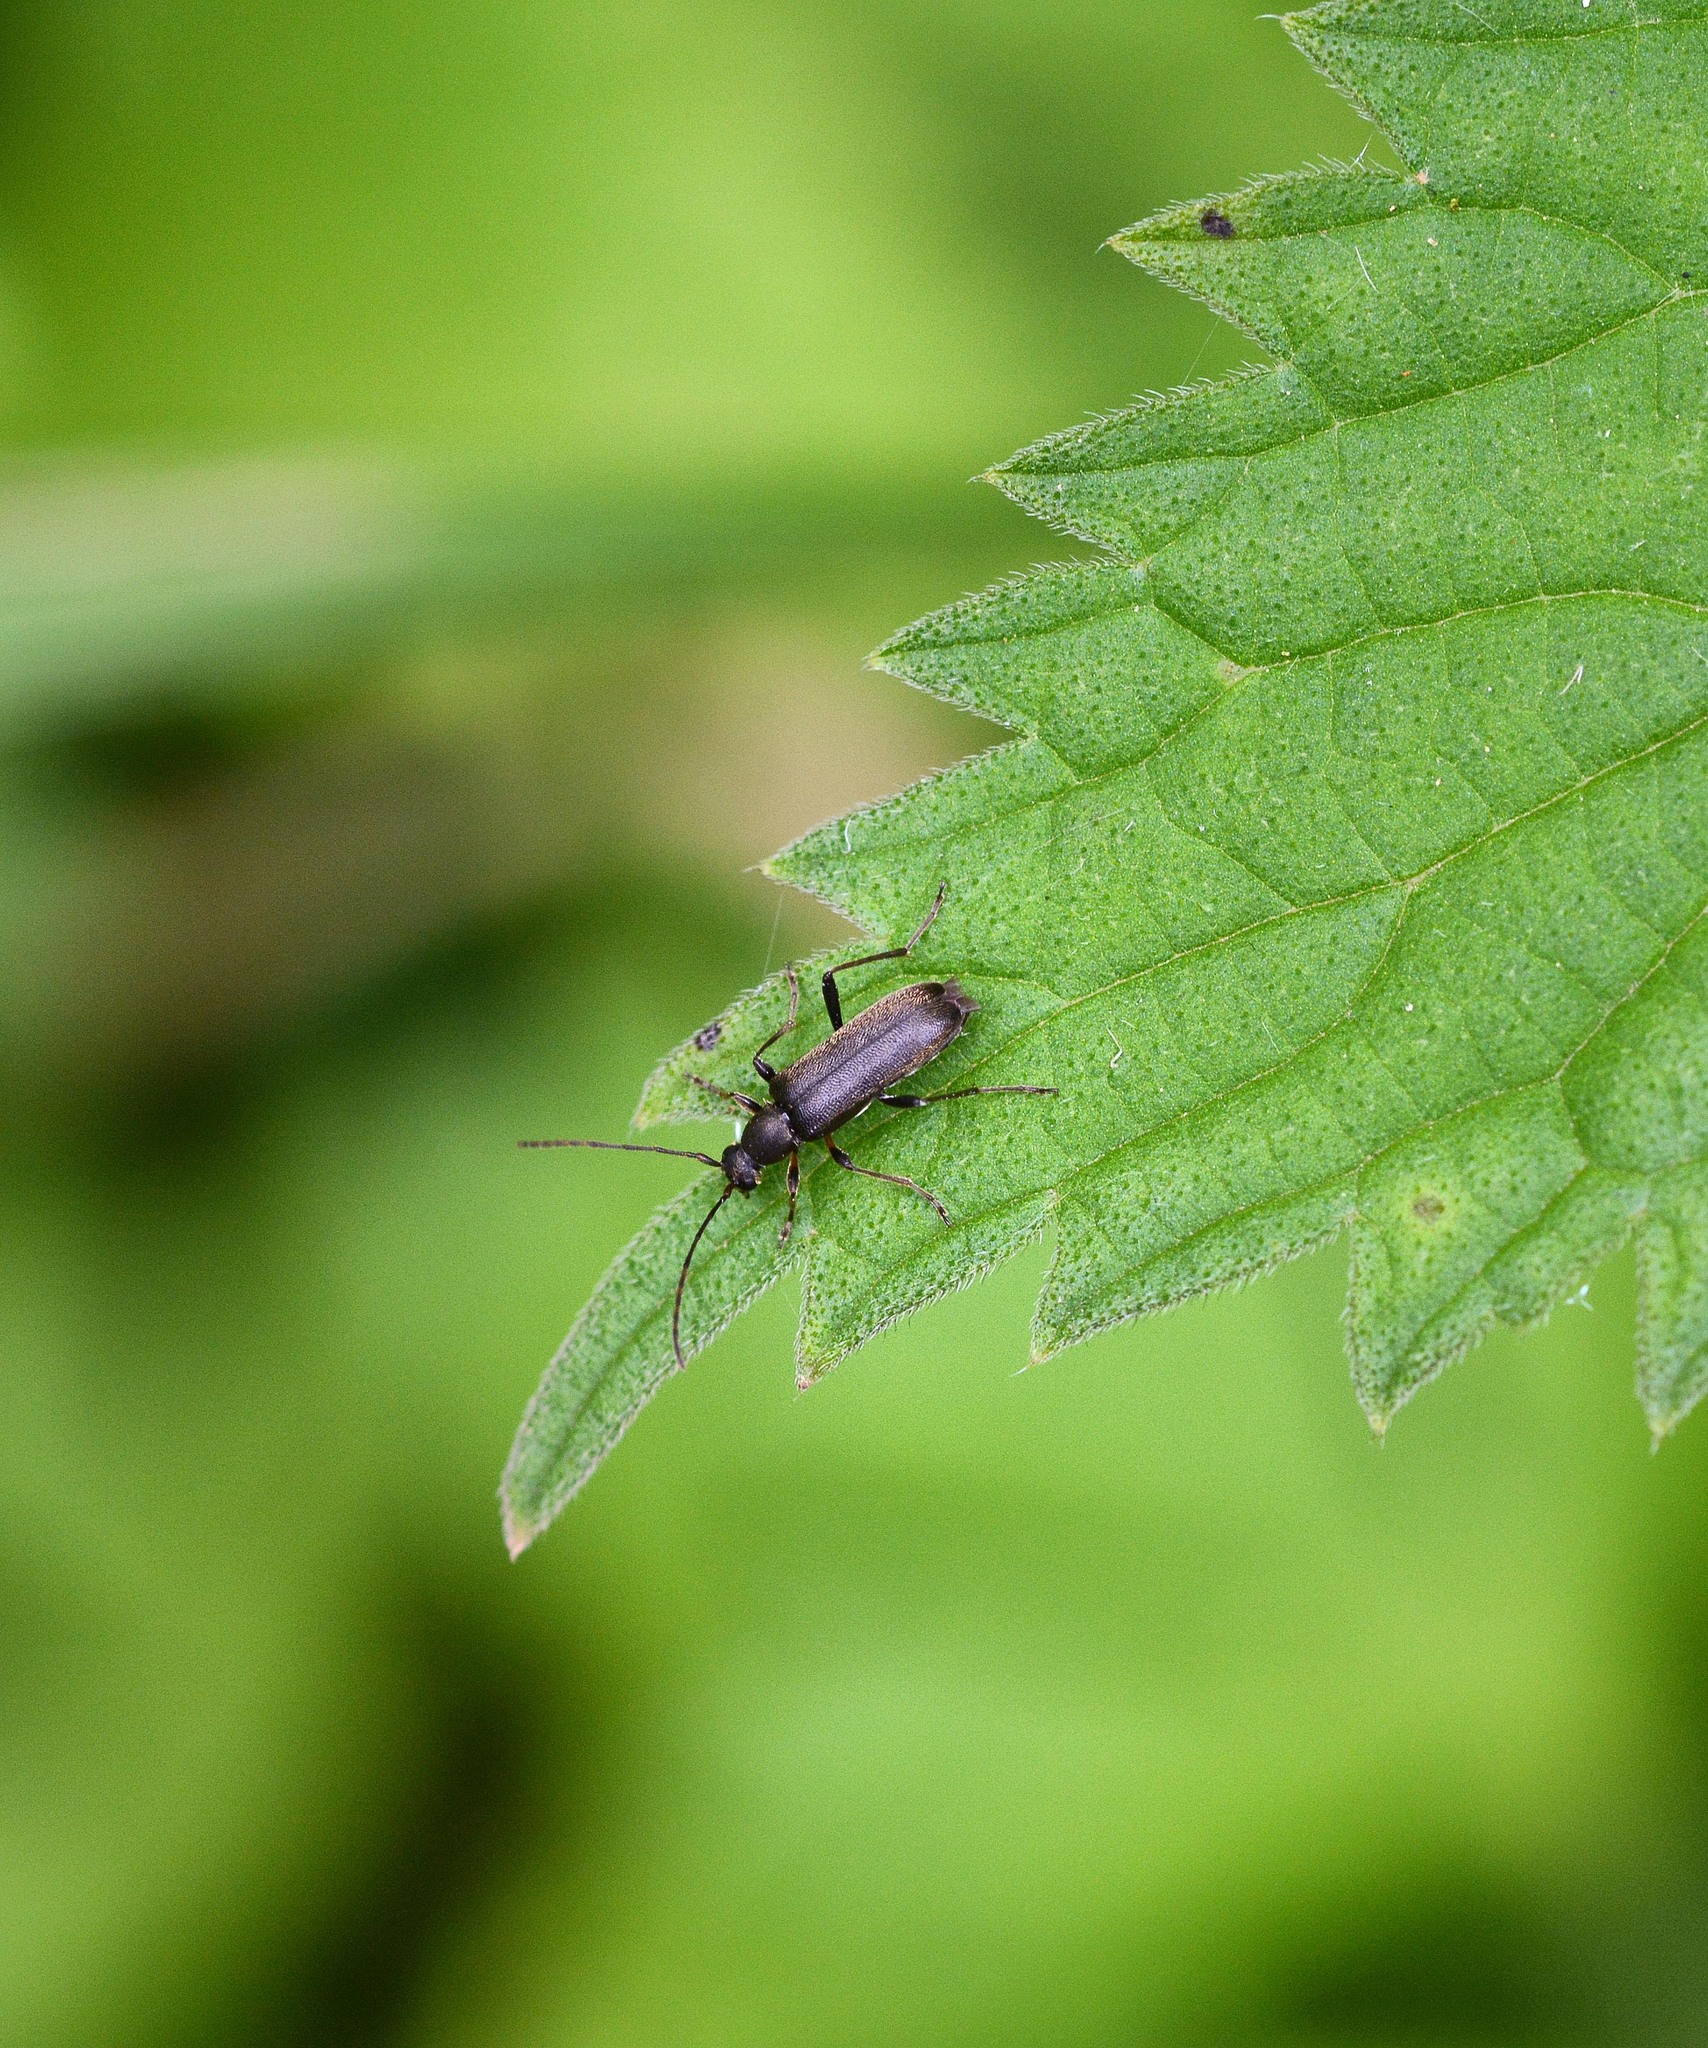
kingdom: Animalia
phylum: Arthropoda
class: Insecta
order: Coleoptera
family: Cerambycidae
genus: Grammoptera
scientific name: Grammoptera ruficornis
